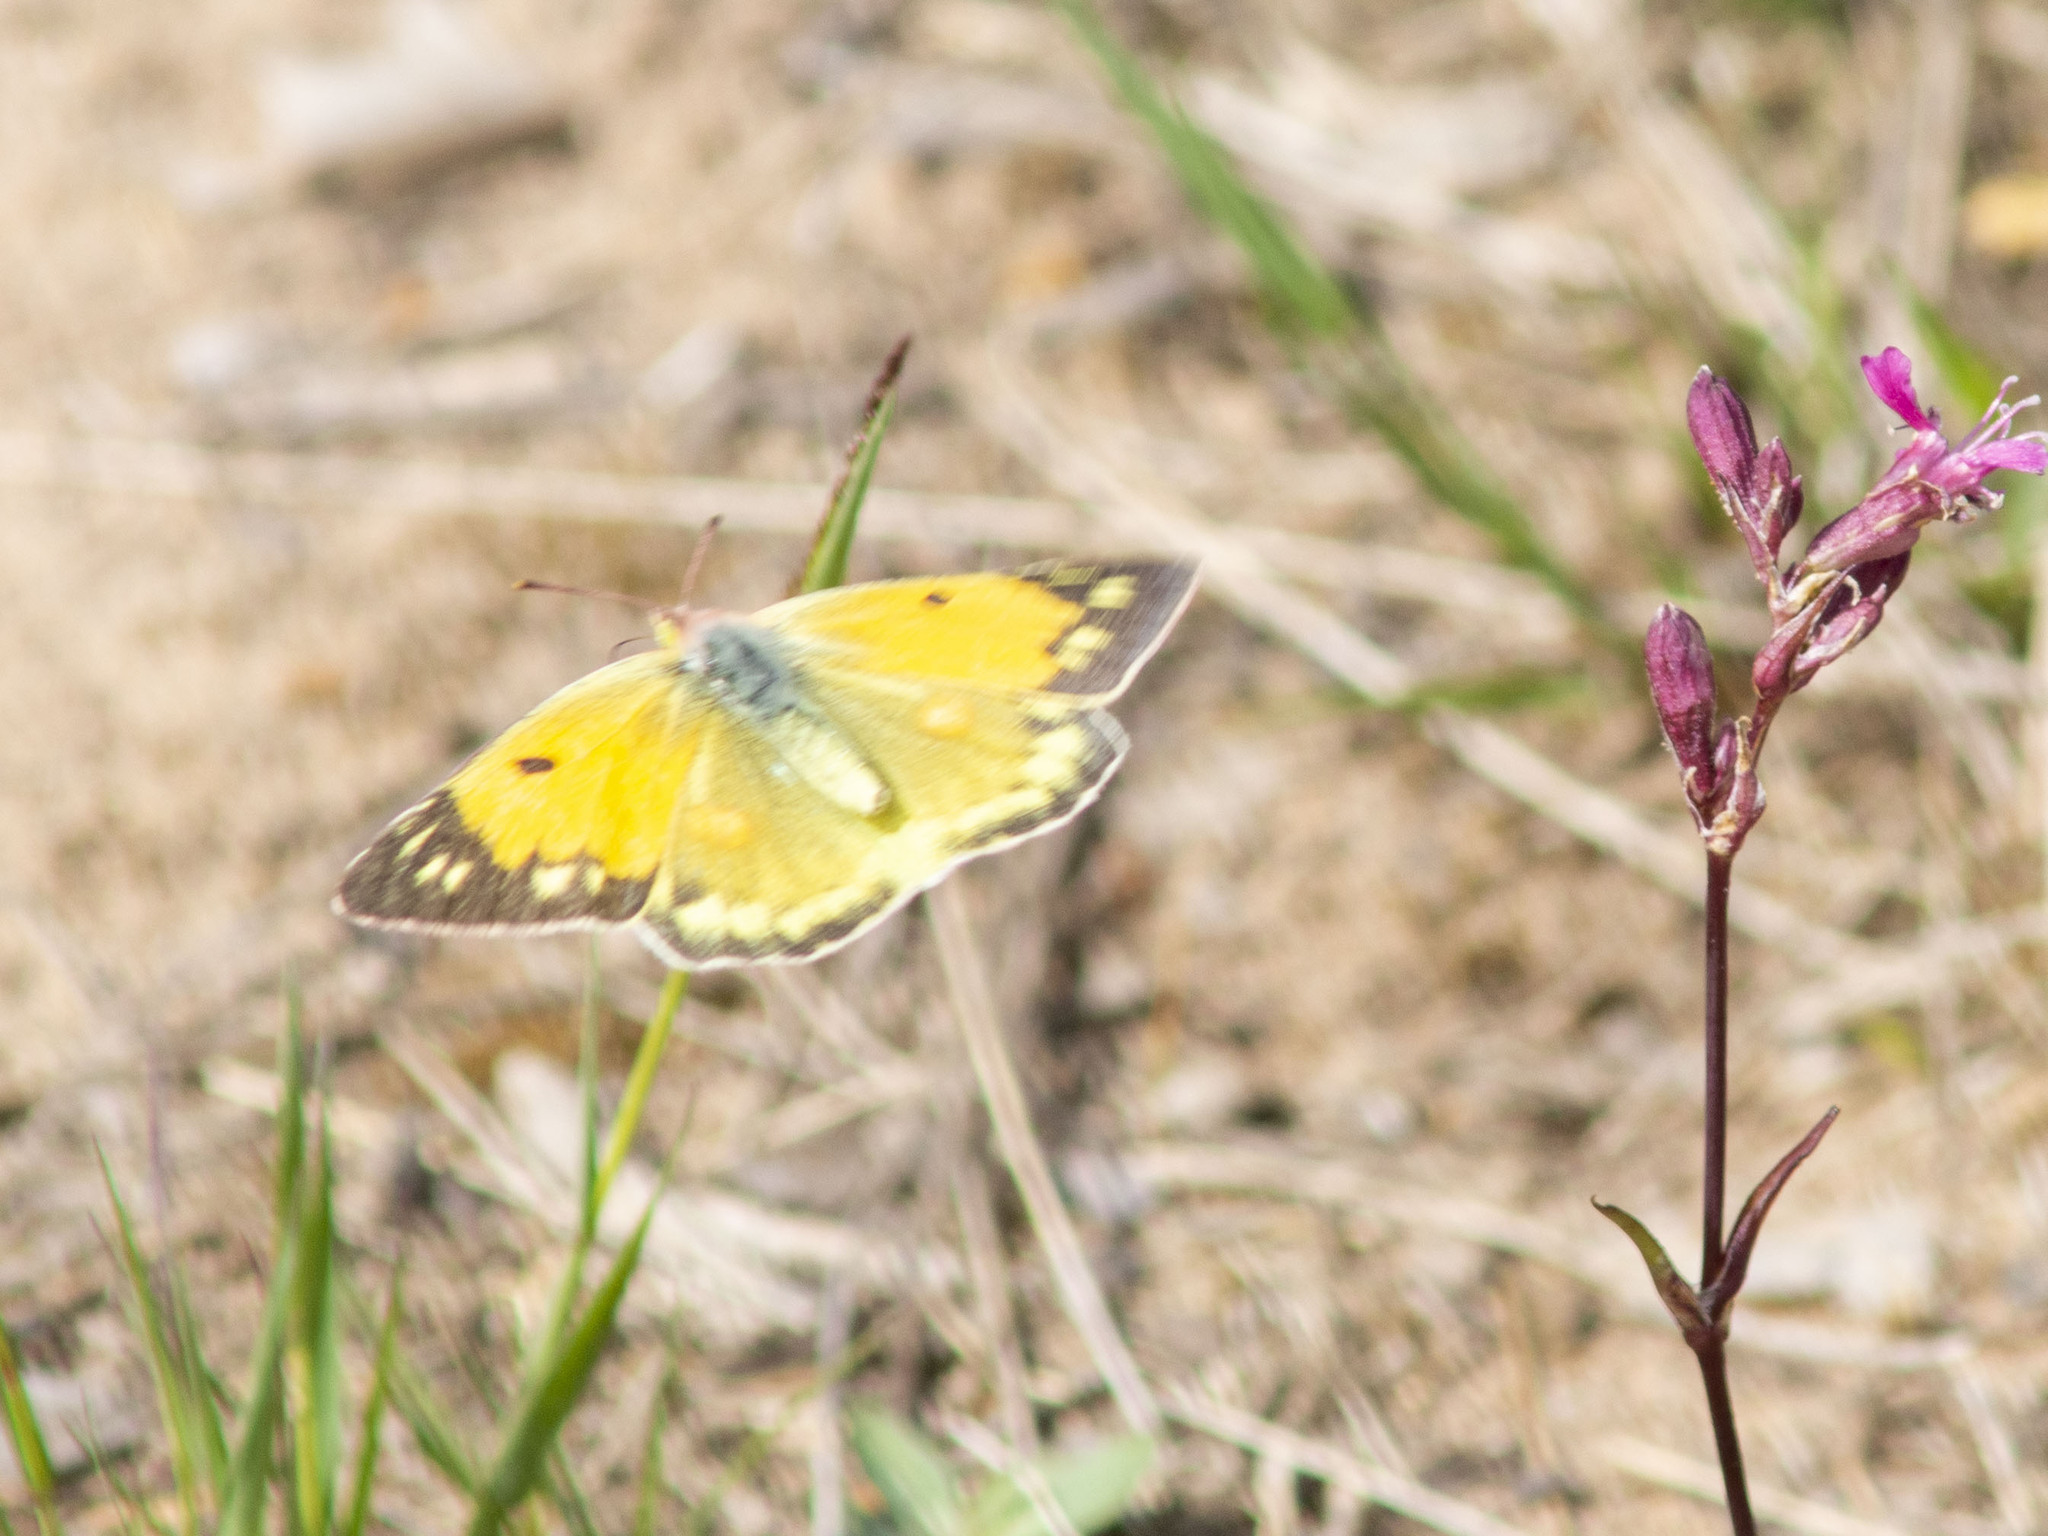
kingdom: Animalia
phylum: Arthropoda
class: Insecta
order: Lepidoptera
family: Pieridae
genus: Colias
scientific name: Colias myrmidone
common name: Danube clouded yellow
